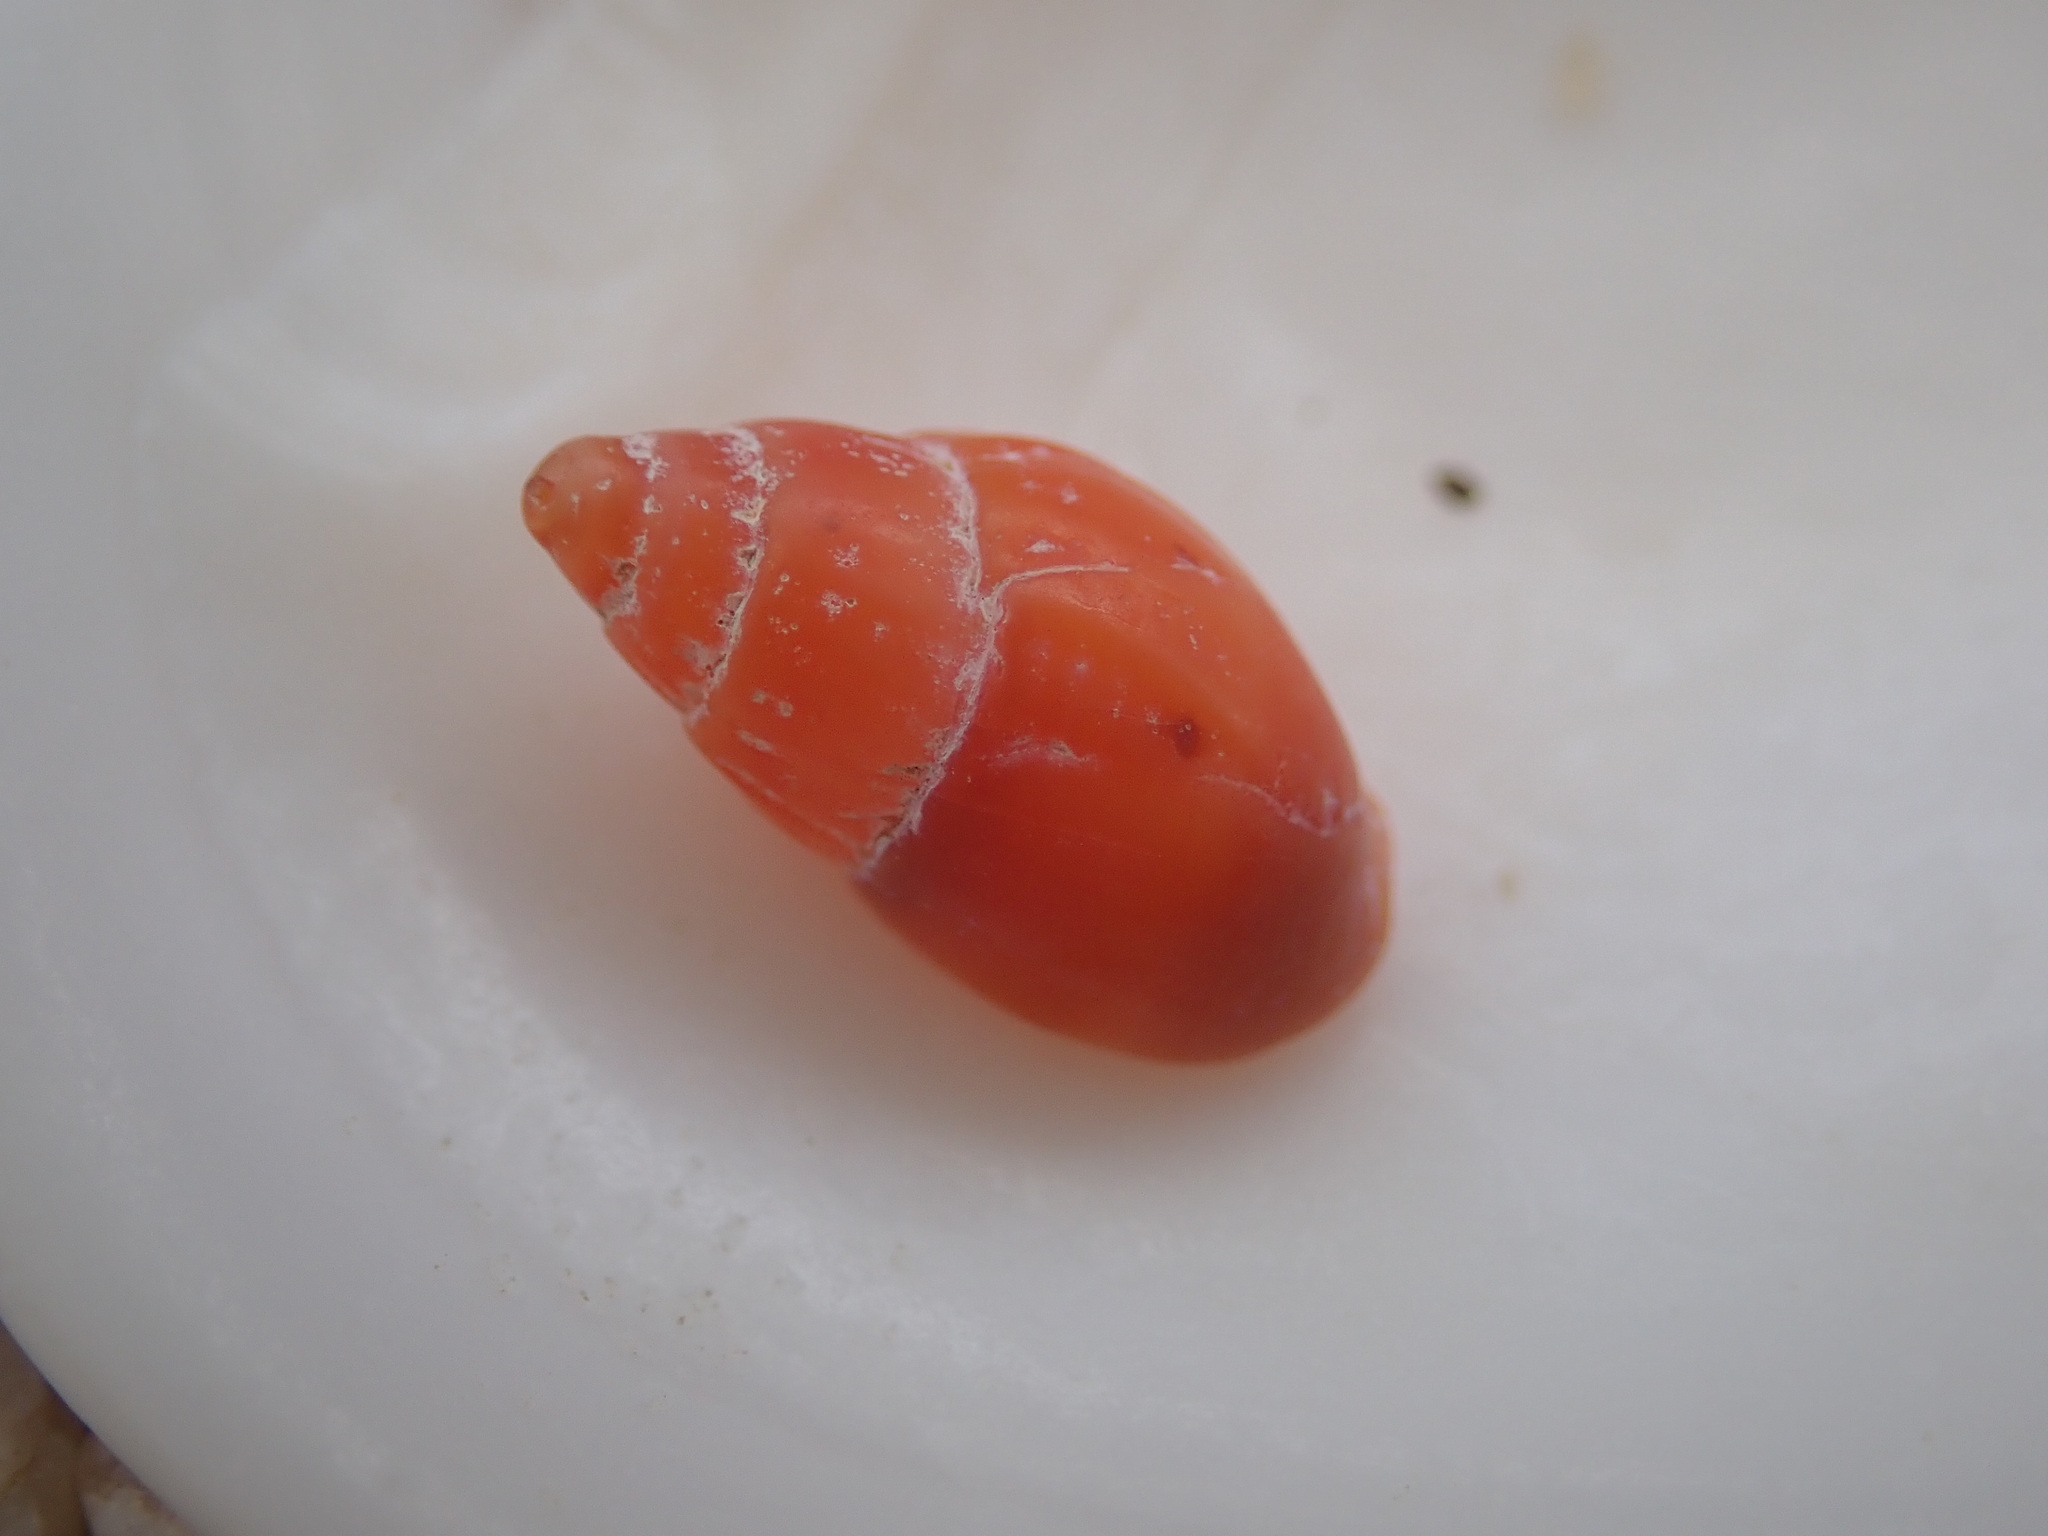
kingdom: Animalia
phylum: Mollusca
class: Gastropoda
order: Neogastropoda
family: Columbellidae
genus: Amphissa
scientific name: Amphissa versicolor
